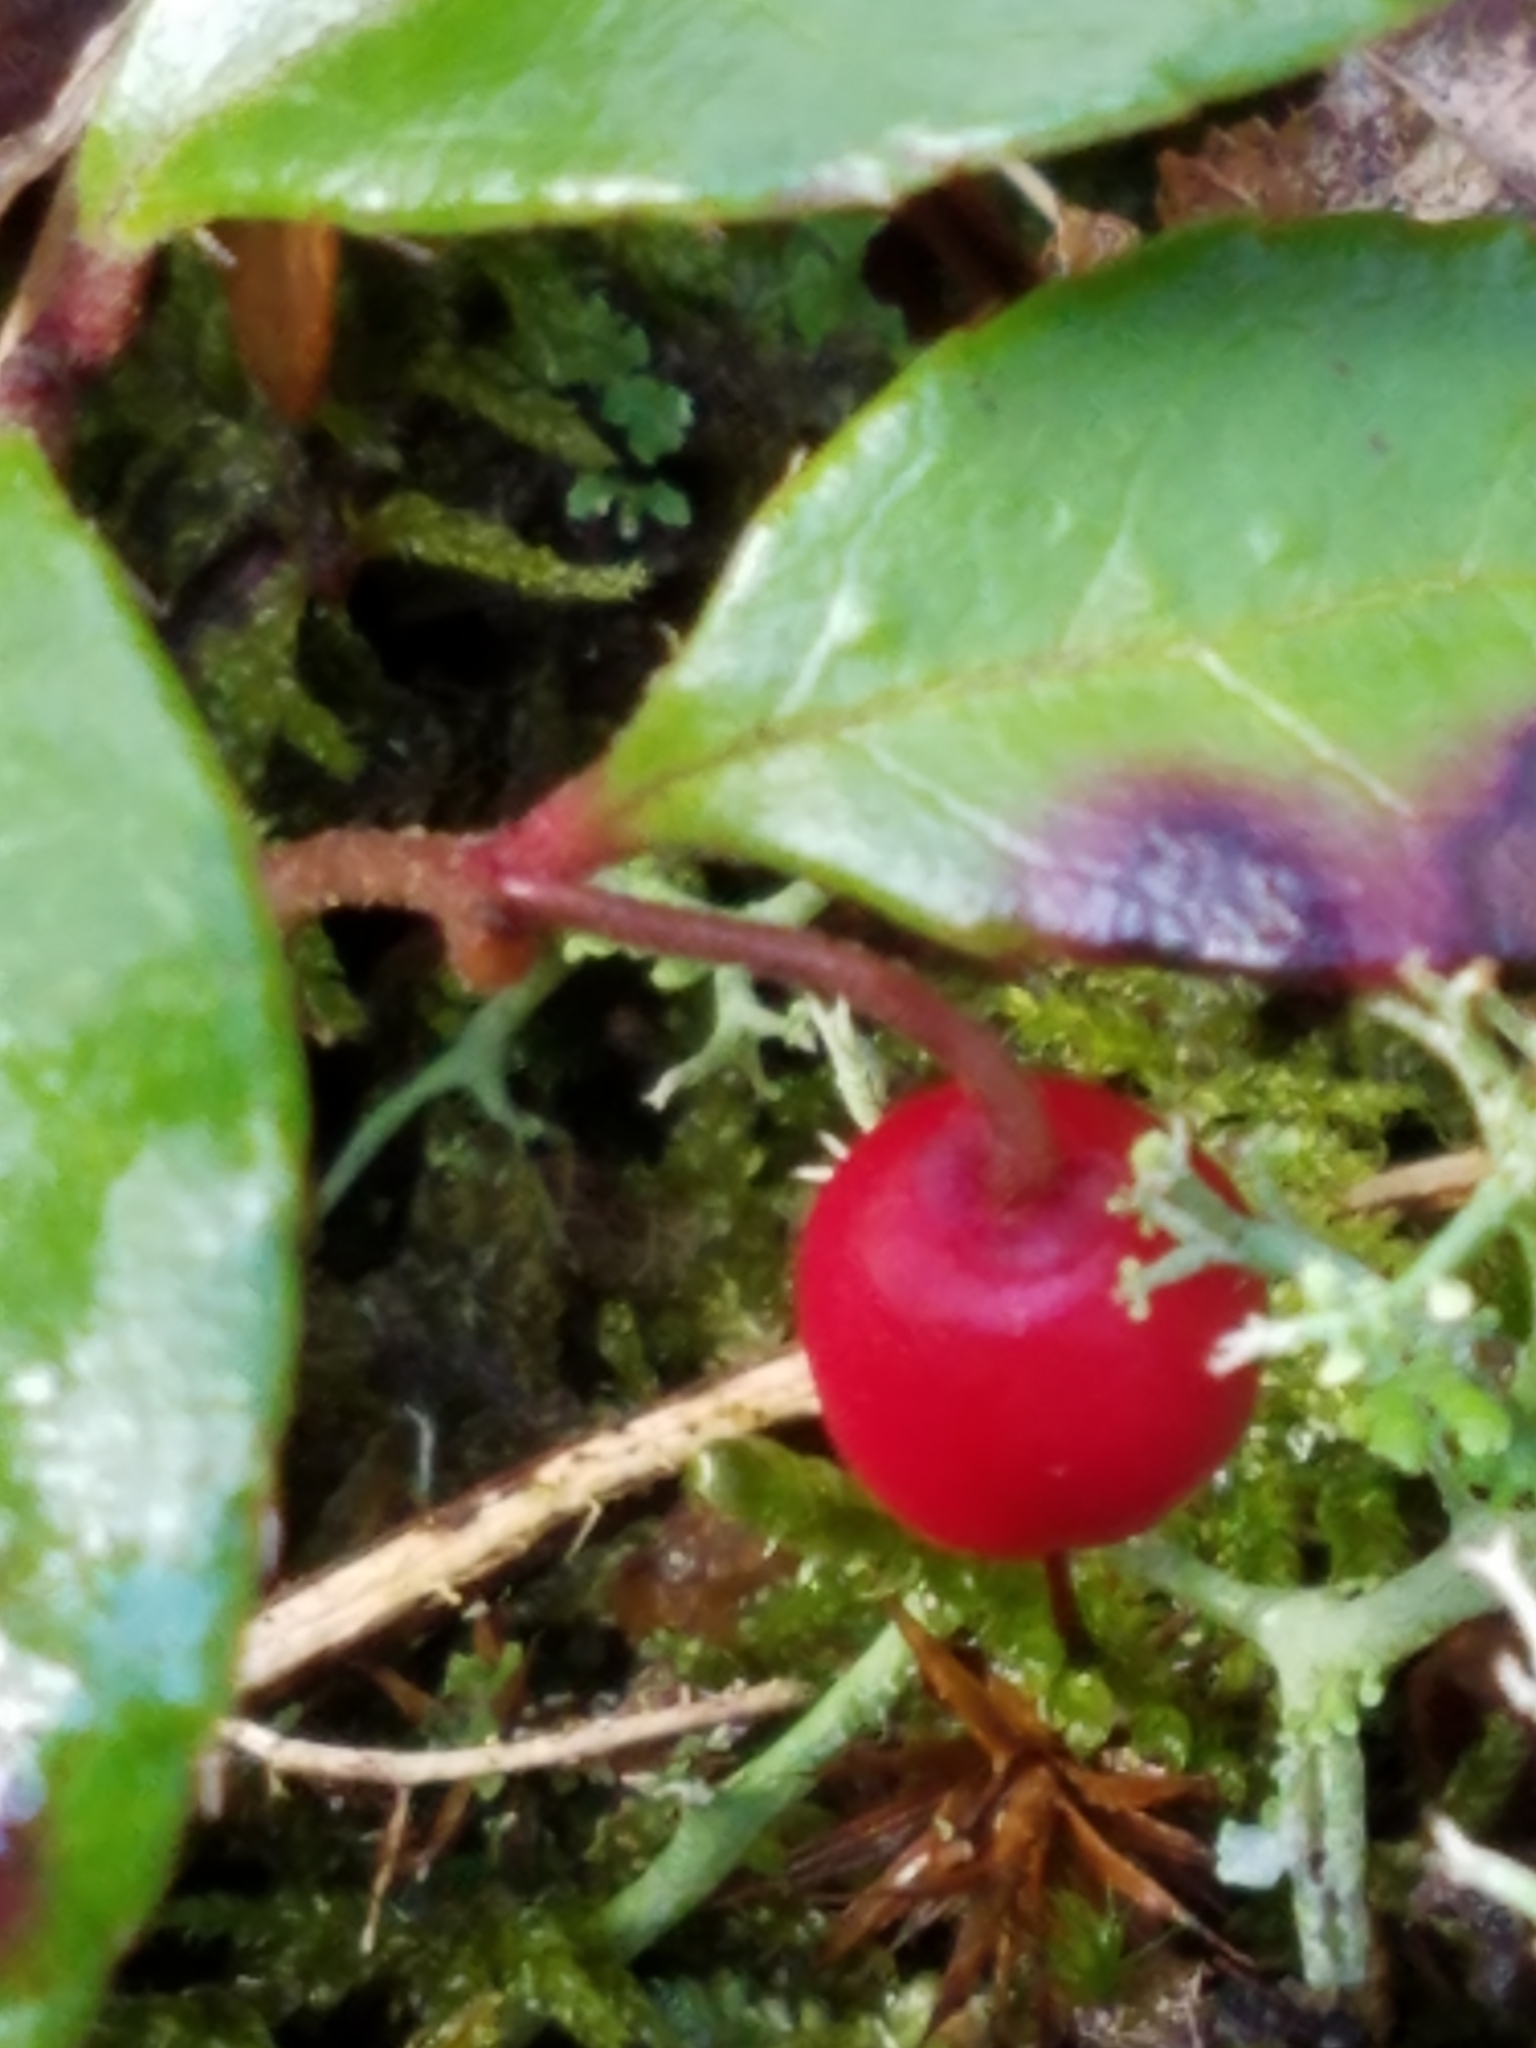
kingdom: Plantae
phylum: Tracheophyta
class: Magnoliopsida
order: Ericales
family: Ericaceae
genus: Gaultheria
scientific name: Gaultheria procumbens
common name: Checkerberry
